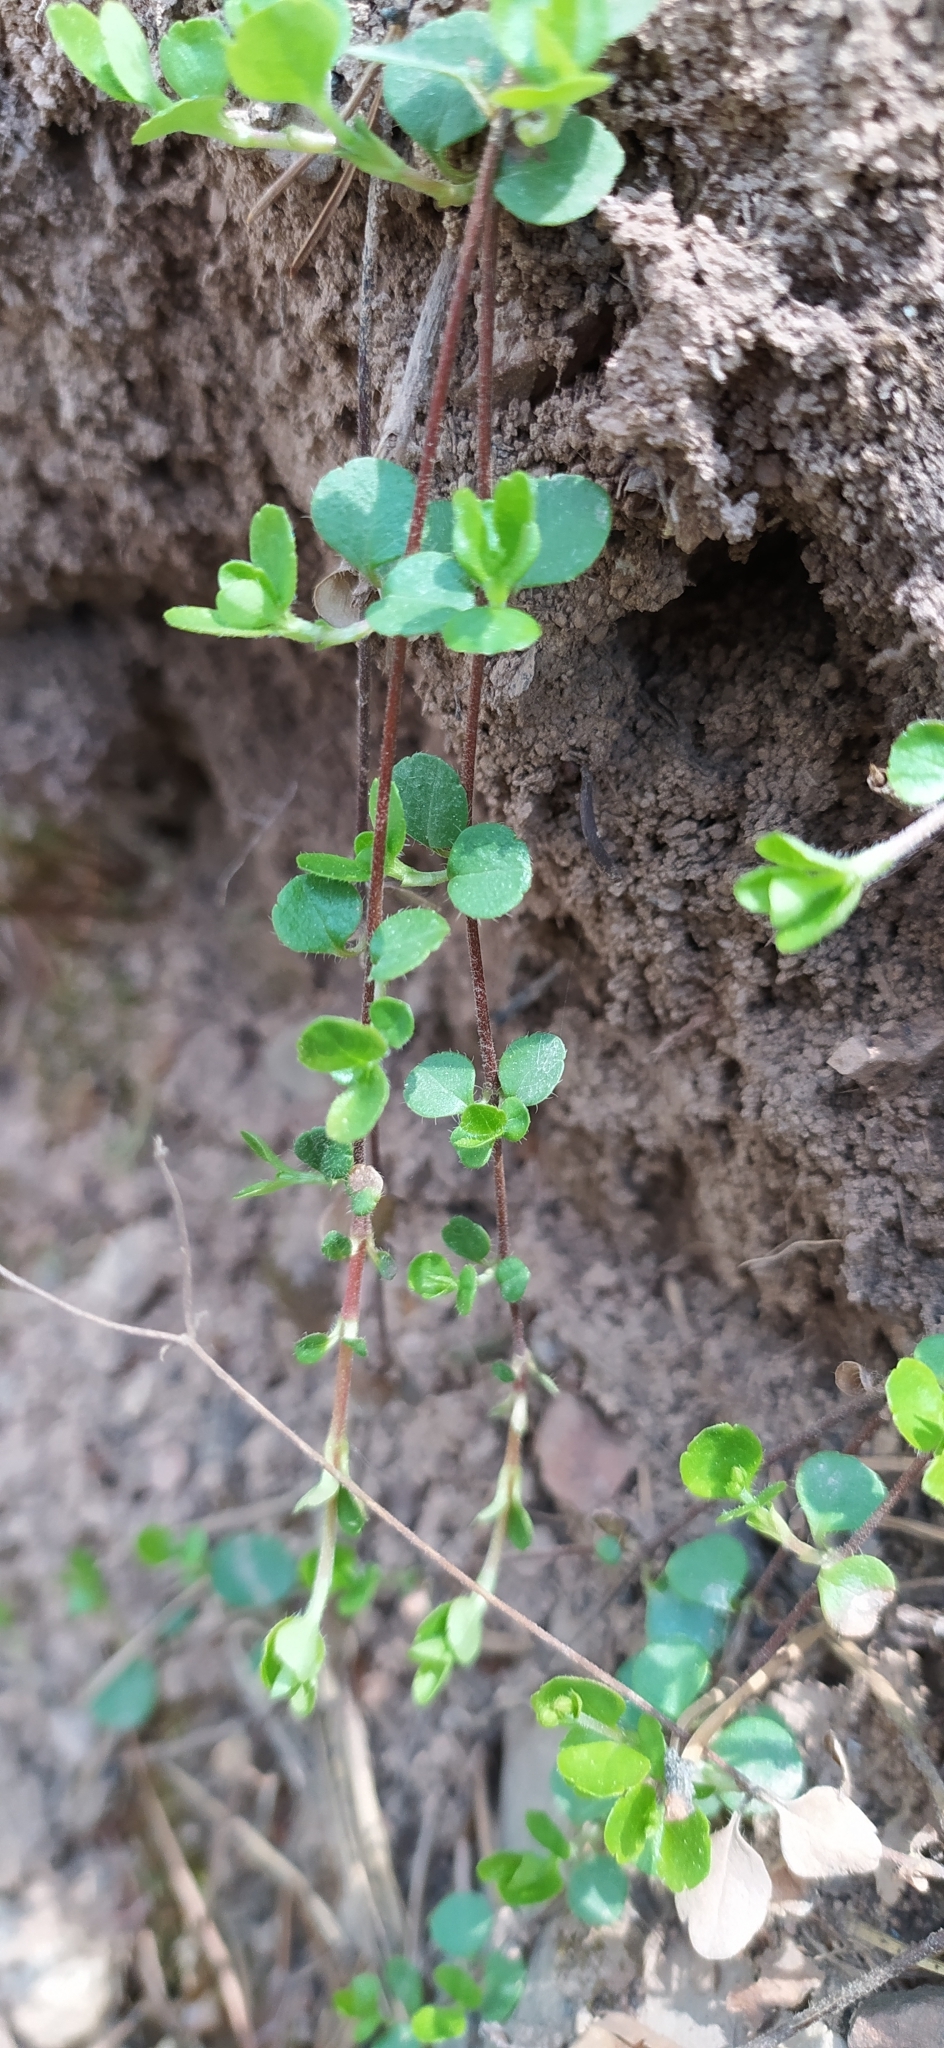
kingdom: Plantae
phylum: Tracheophyta
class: Magnoliopsida
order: Dipsacales
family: Caprifoliaceae
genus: Linnaea
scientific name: Linnaea borealis
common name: Twinflower
